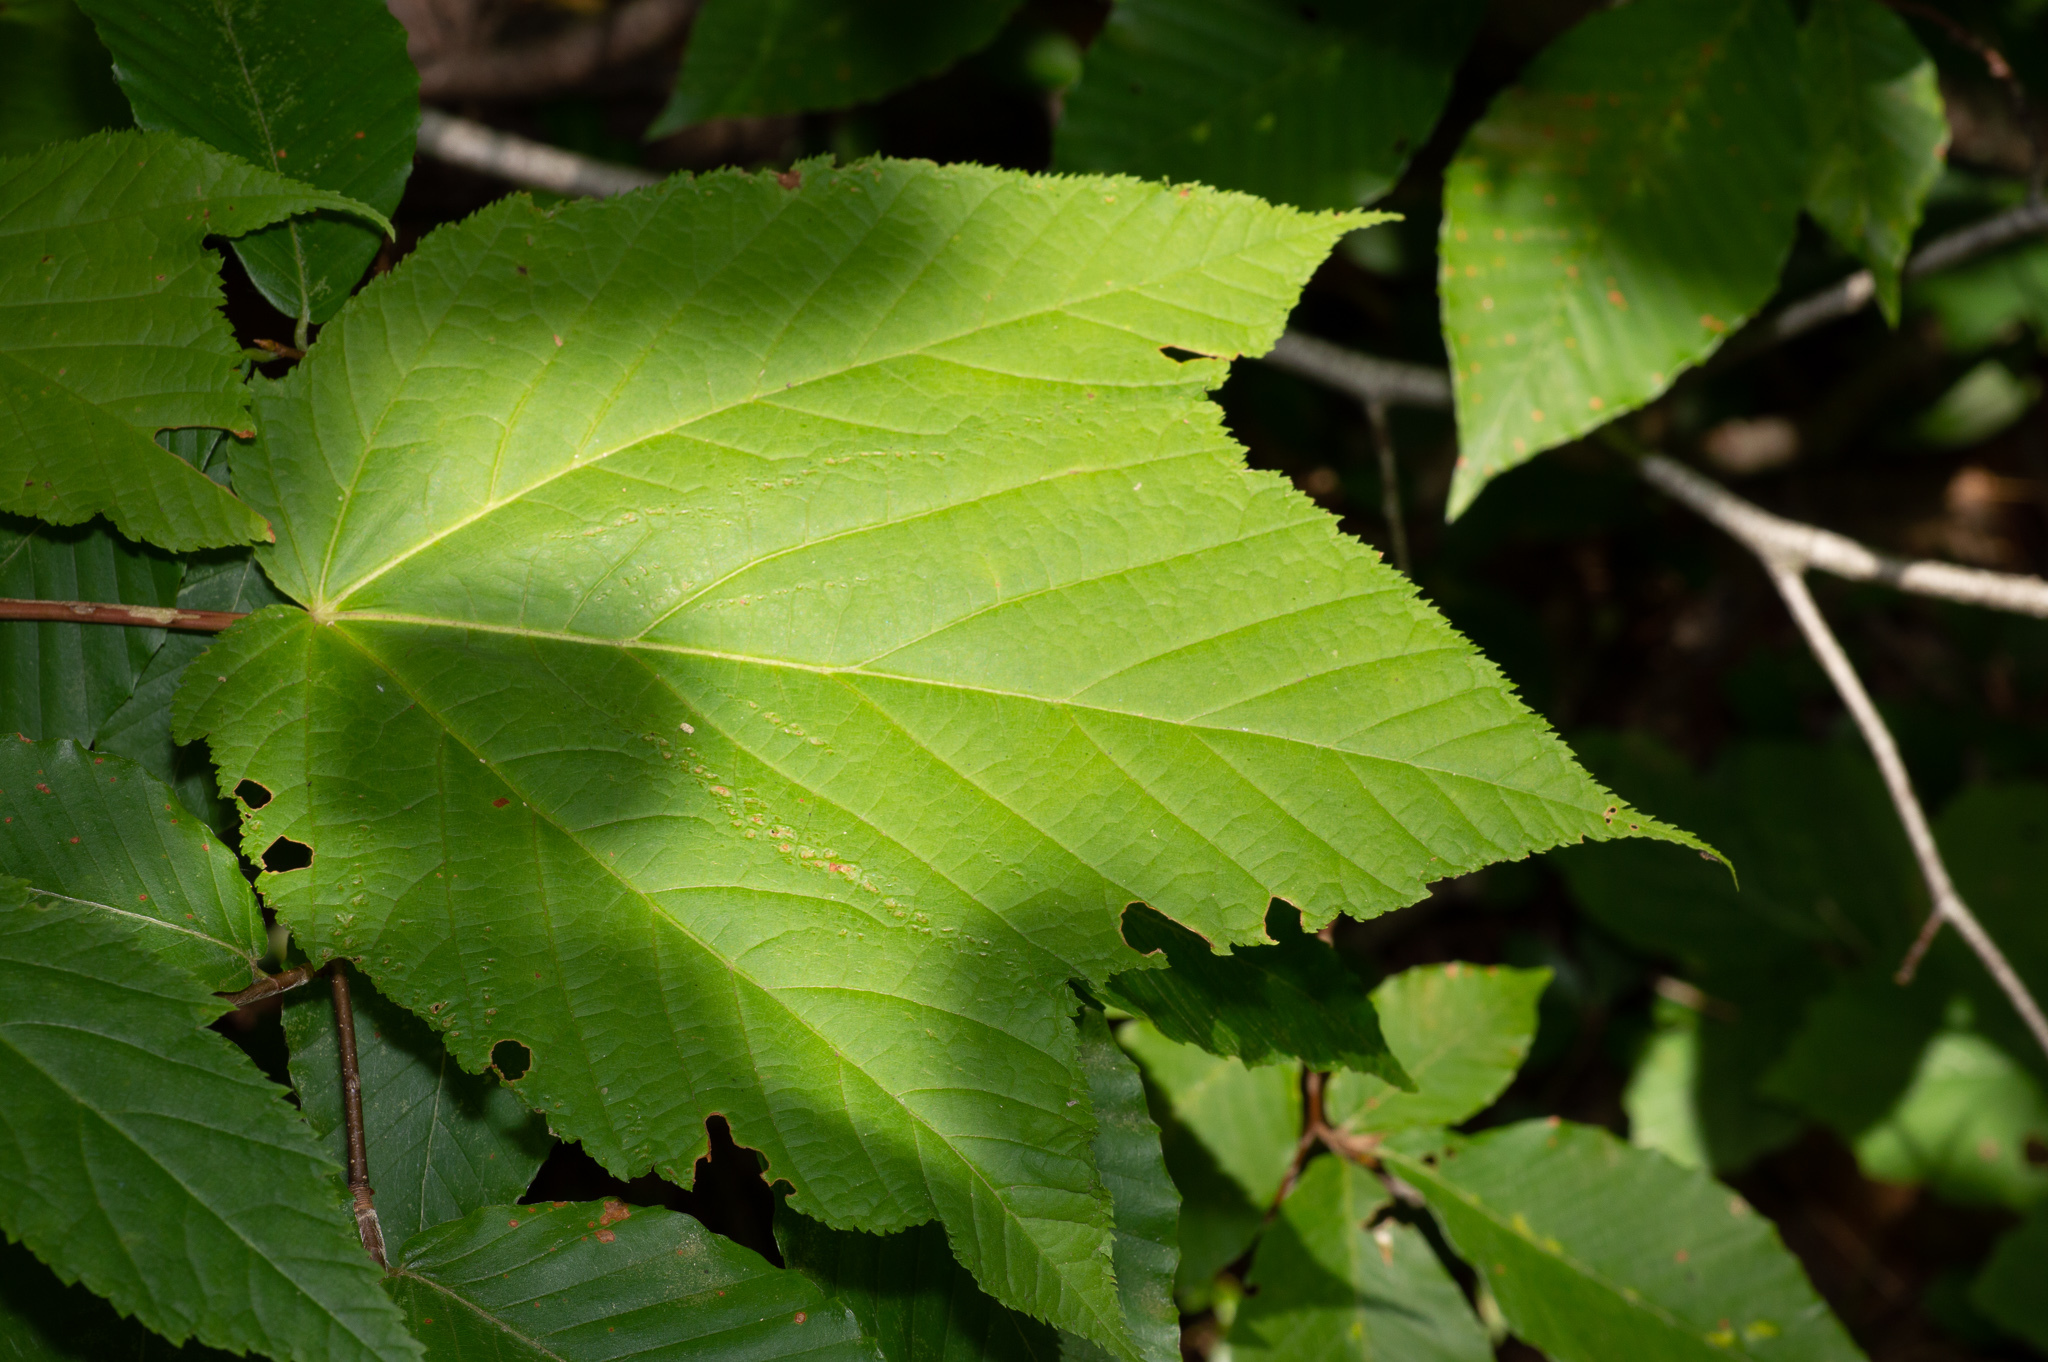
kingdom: Plantae
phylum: Tracheophyta
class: Magnoliopsida
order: Sapindales
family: Sapindaceae
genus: Acer
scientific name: Acer pensylvanicum
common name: Moosewood
